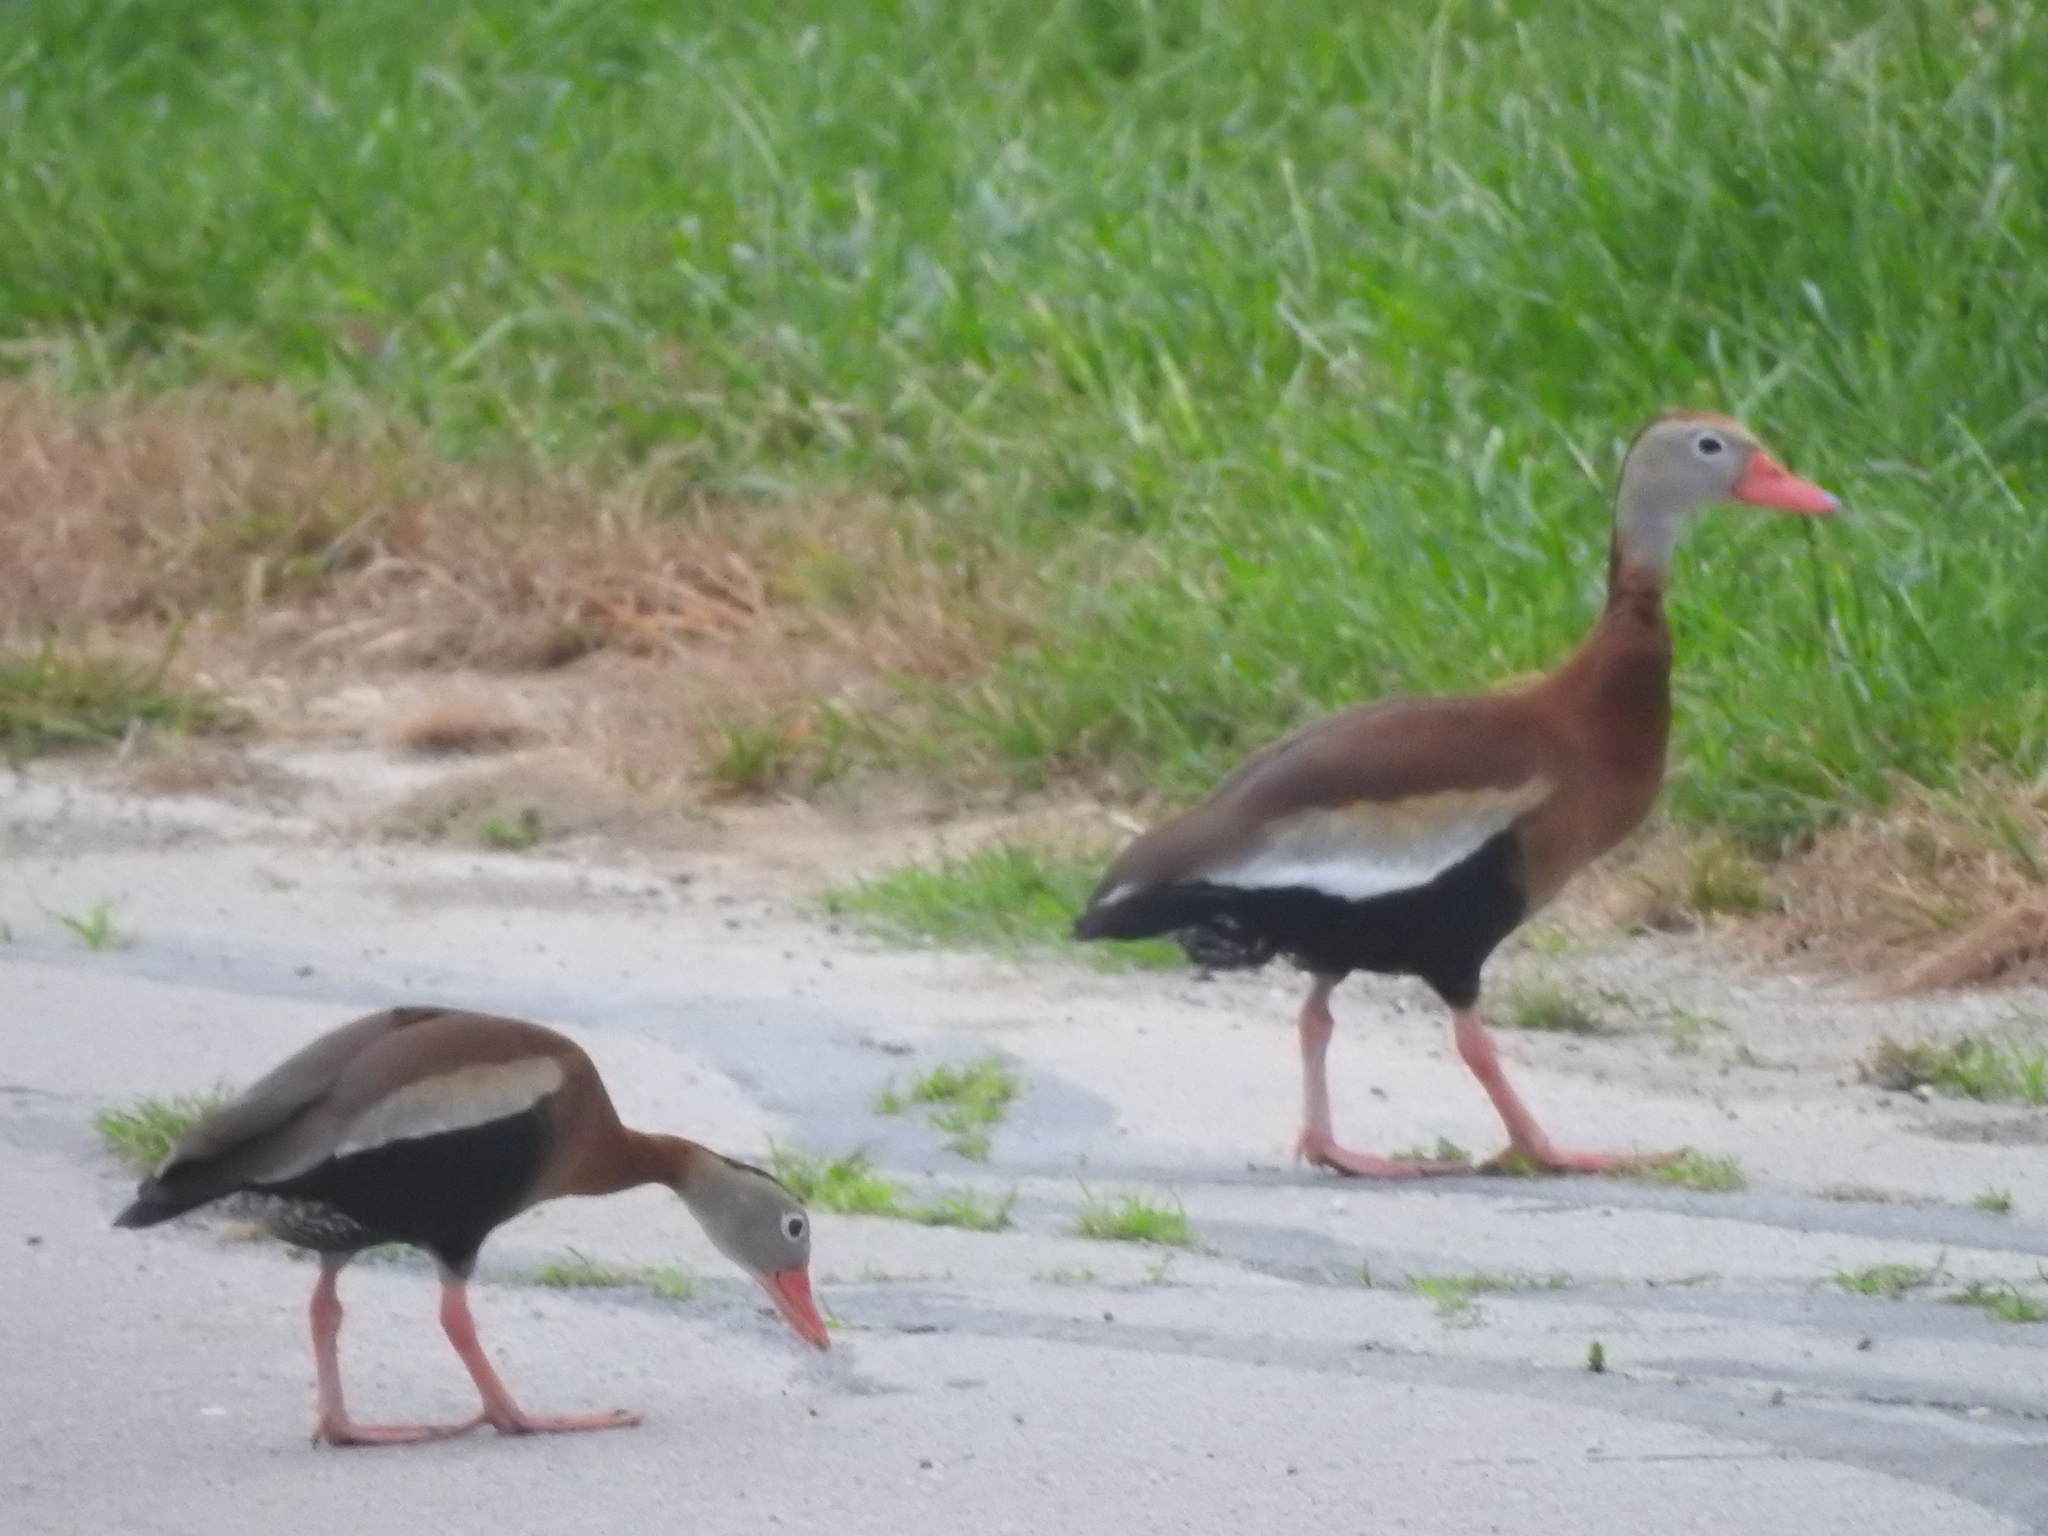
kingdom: Animalia
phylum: Chordata
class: Aves
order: Anseriformes
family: Anatidae
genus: Dendrocygna
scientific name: Dendrocygna autumnalis
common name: Black-bellied whistling duck
